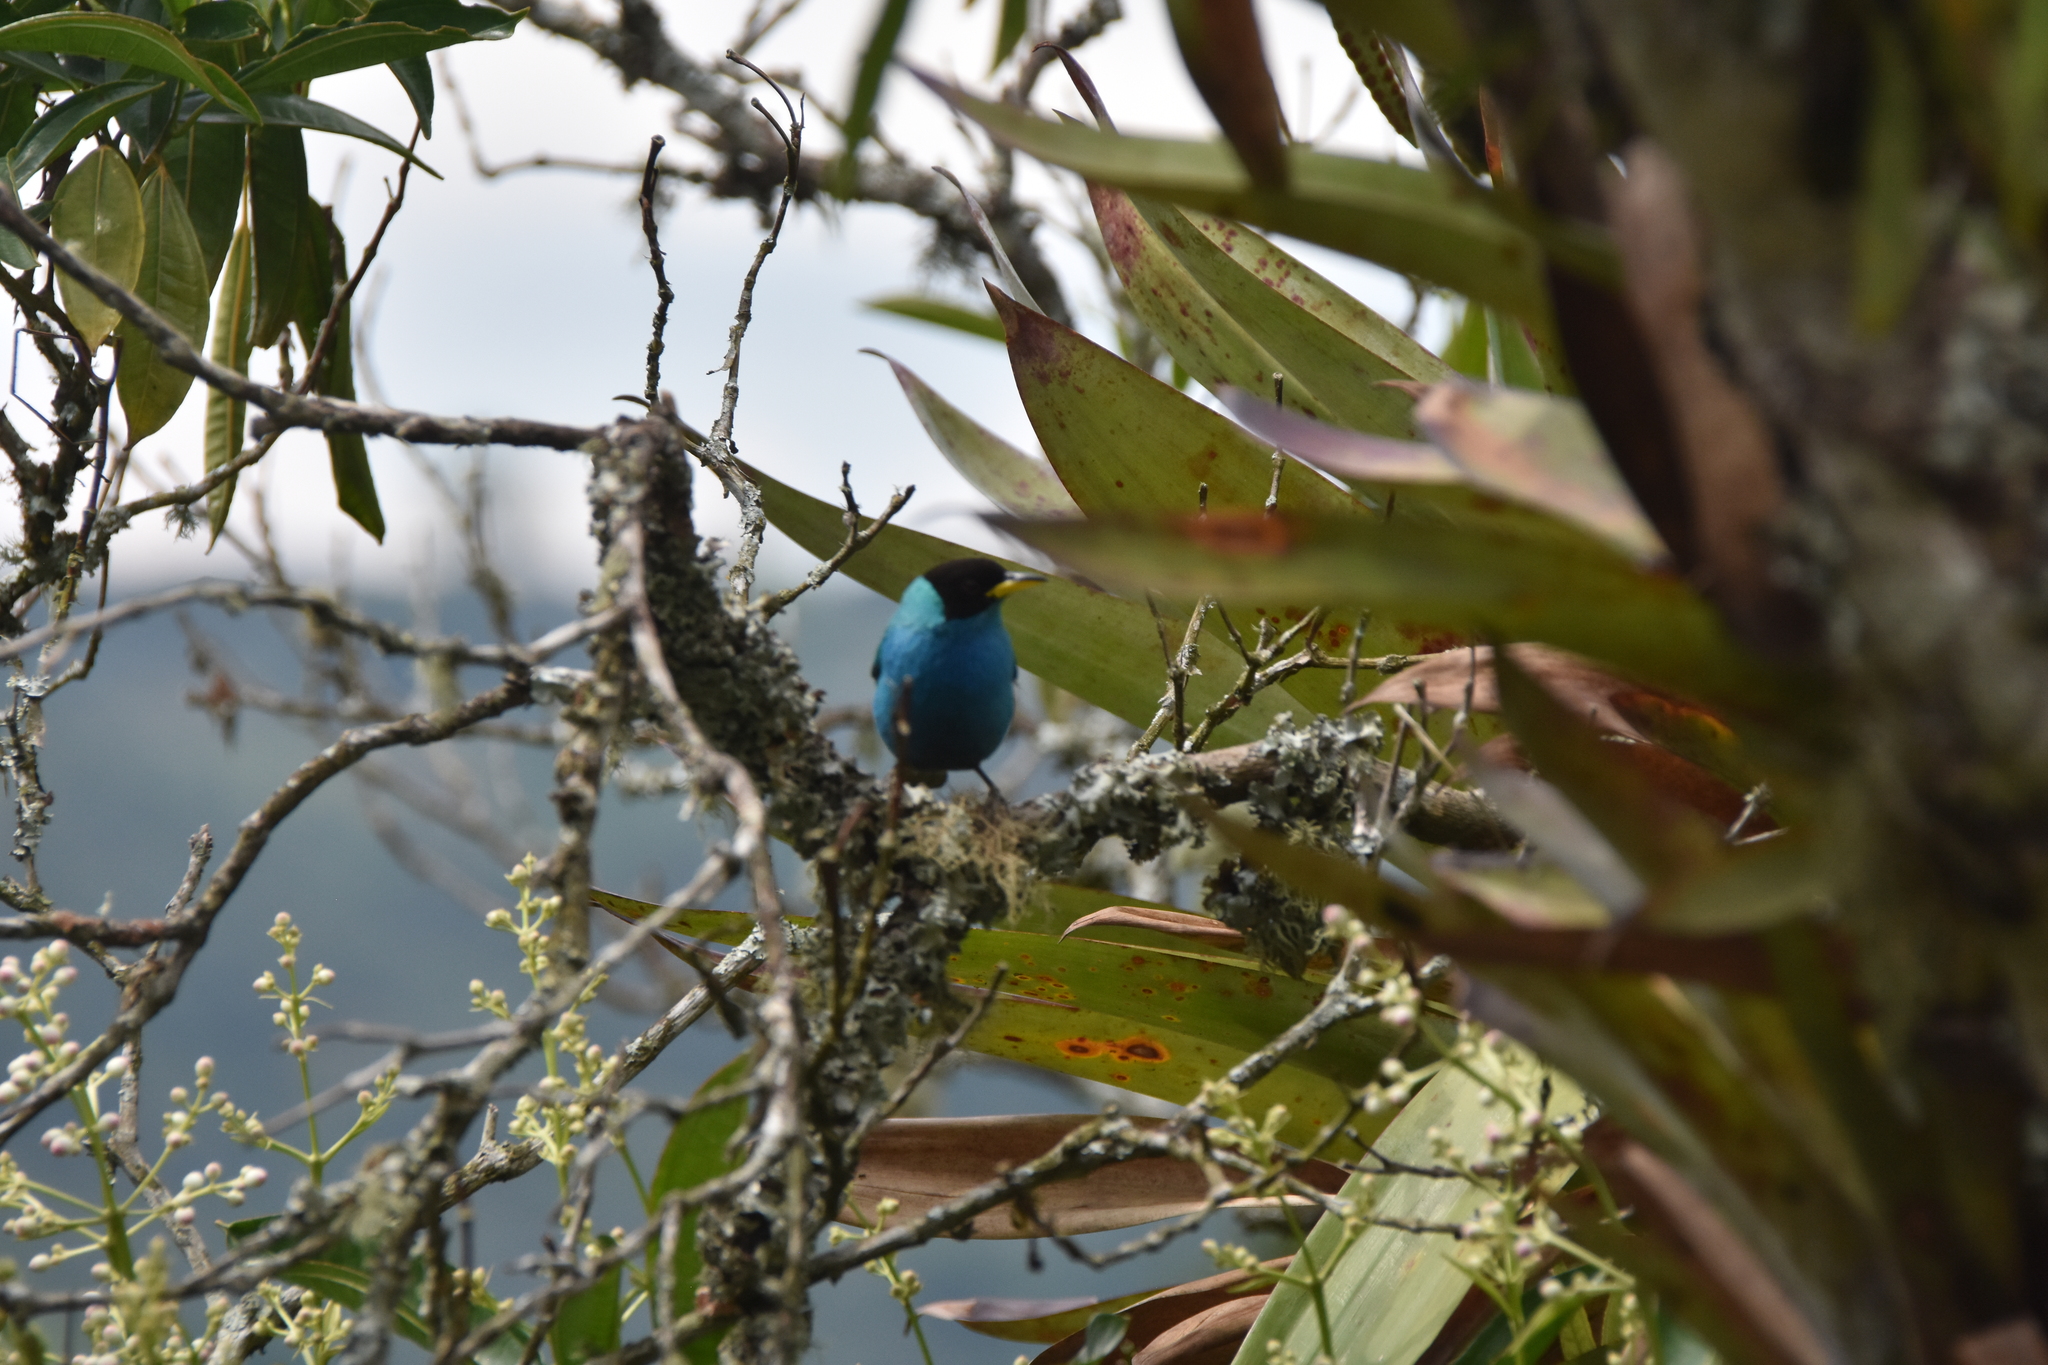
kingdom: Animalia
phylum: Chordata
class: Aves
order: Passeriformes
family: Thraupidae
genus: Chlorophanes
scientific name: Chlorophanes spiza
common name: Green honeycreeper
